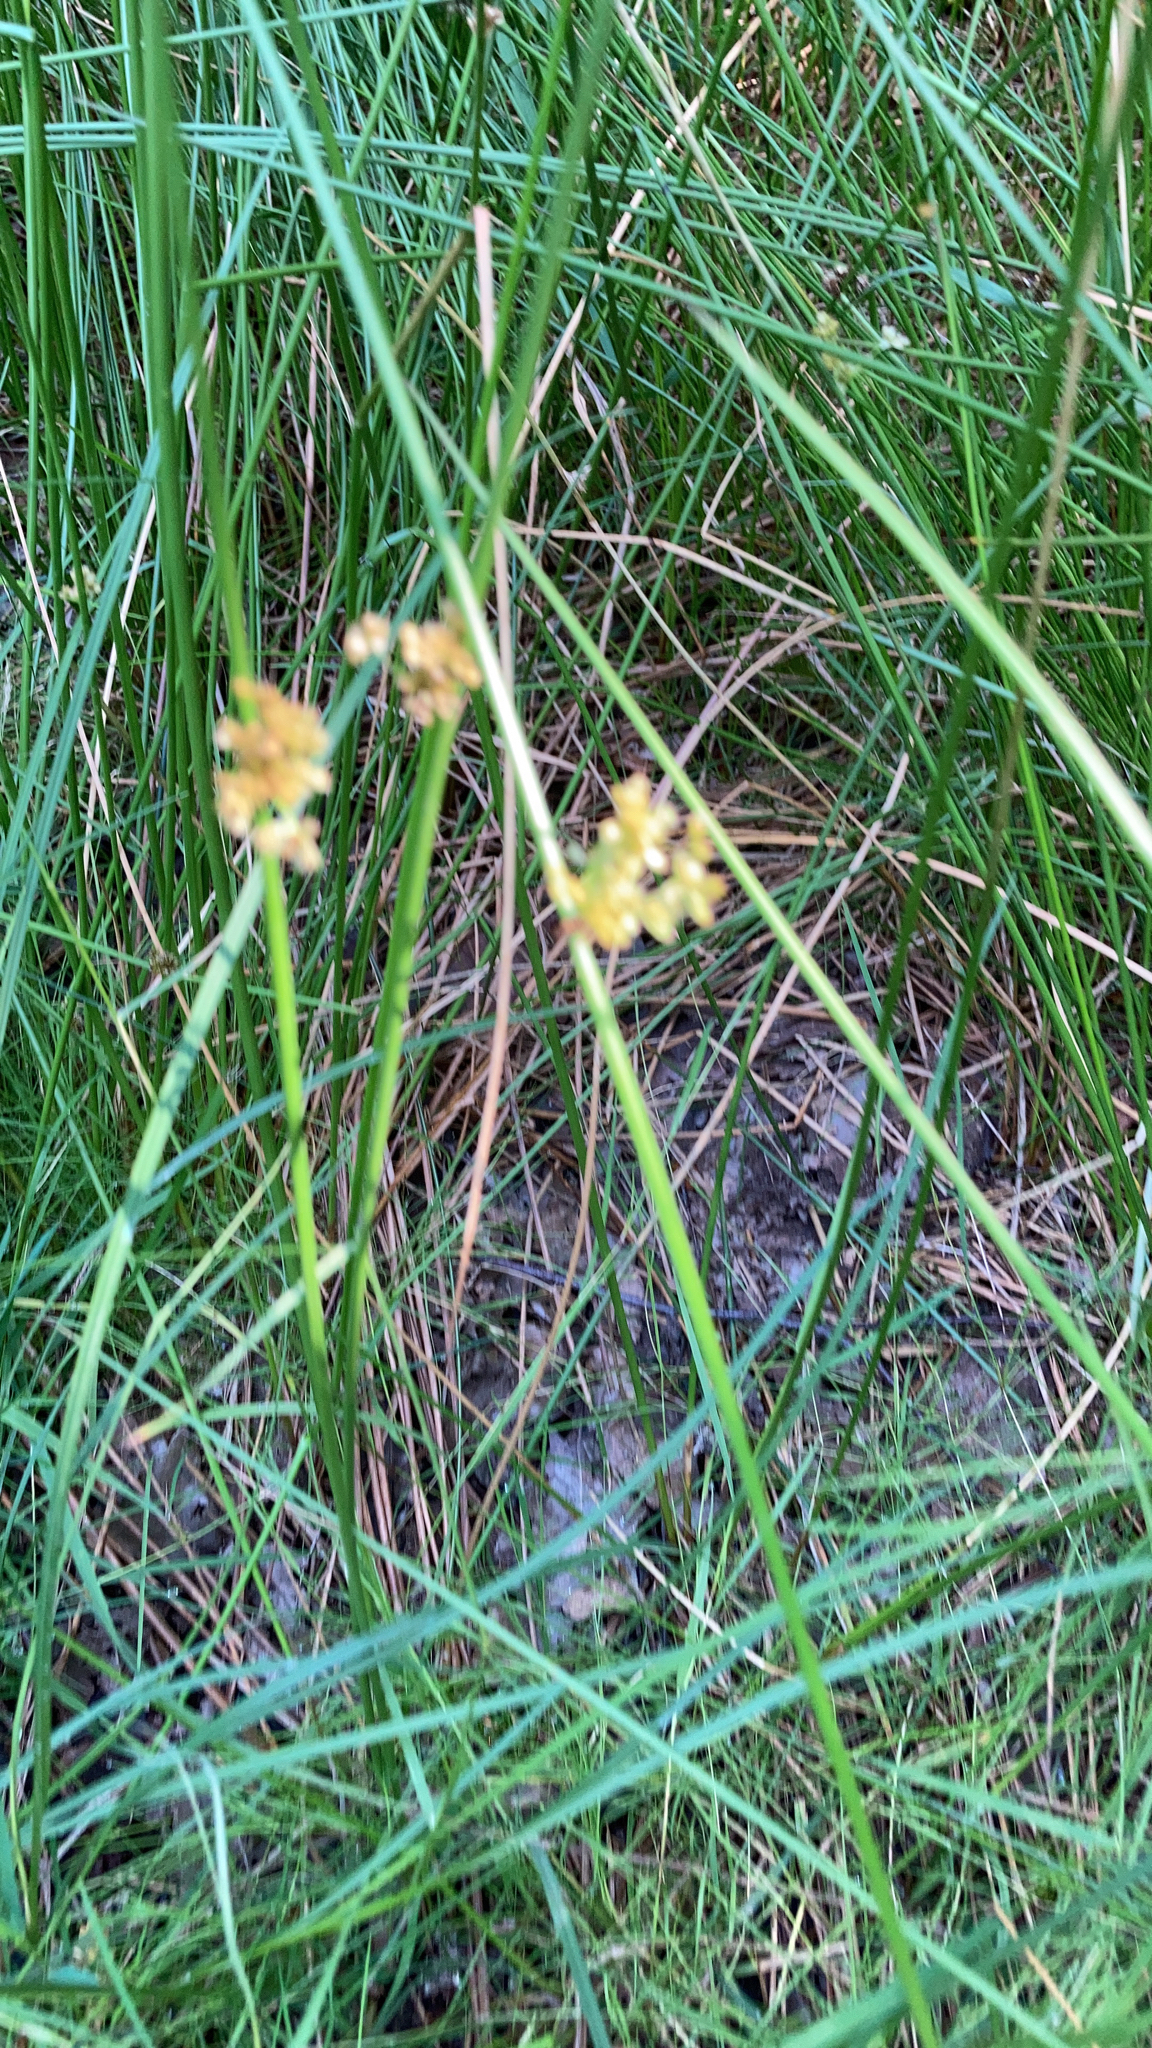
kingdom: Plantae
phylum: Tracheophyta
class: Liliopsida
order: Poales
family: Juncaceae
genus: Juncus
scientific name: Juncus effusus
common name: Soft rush
